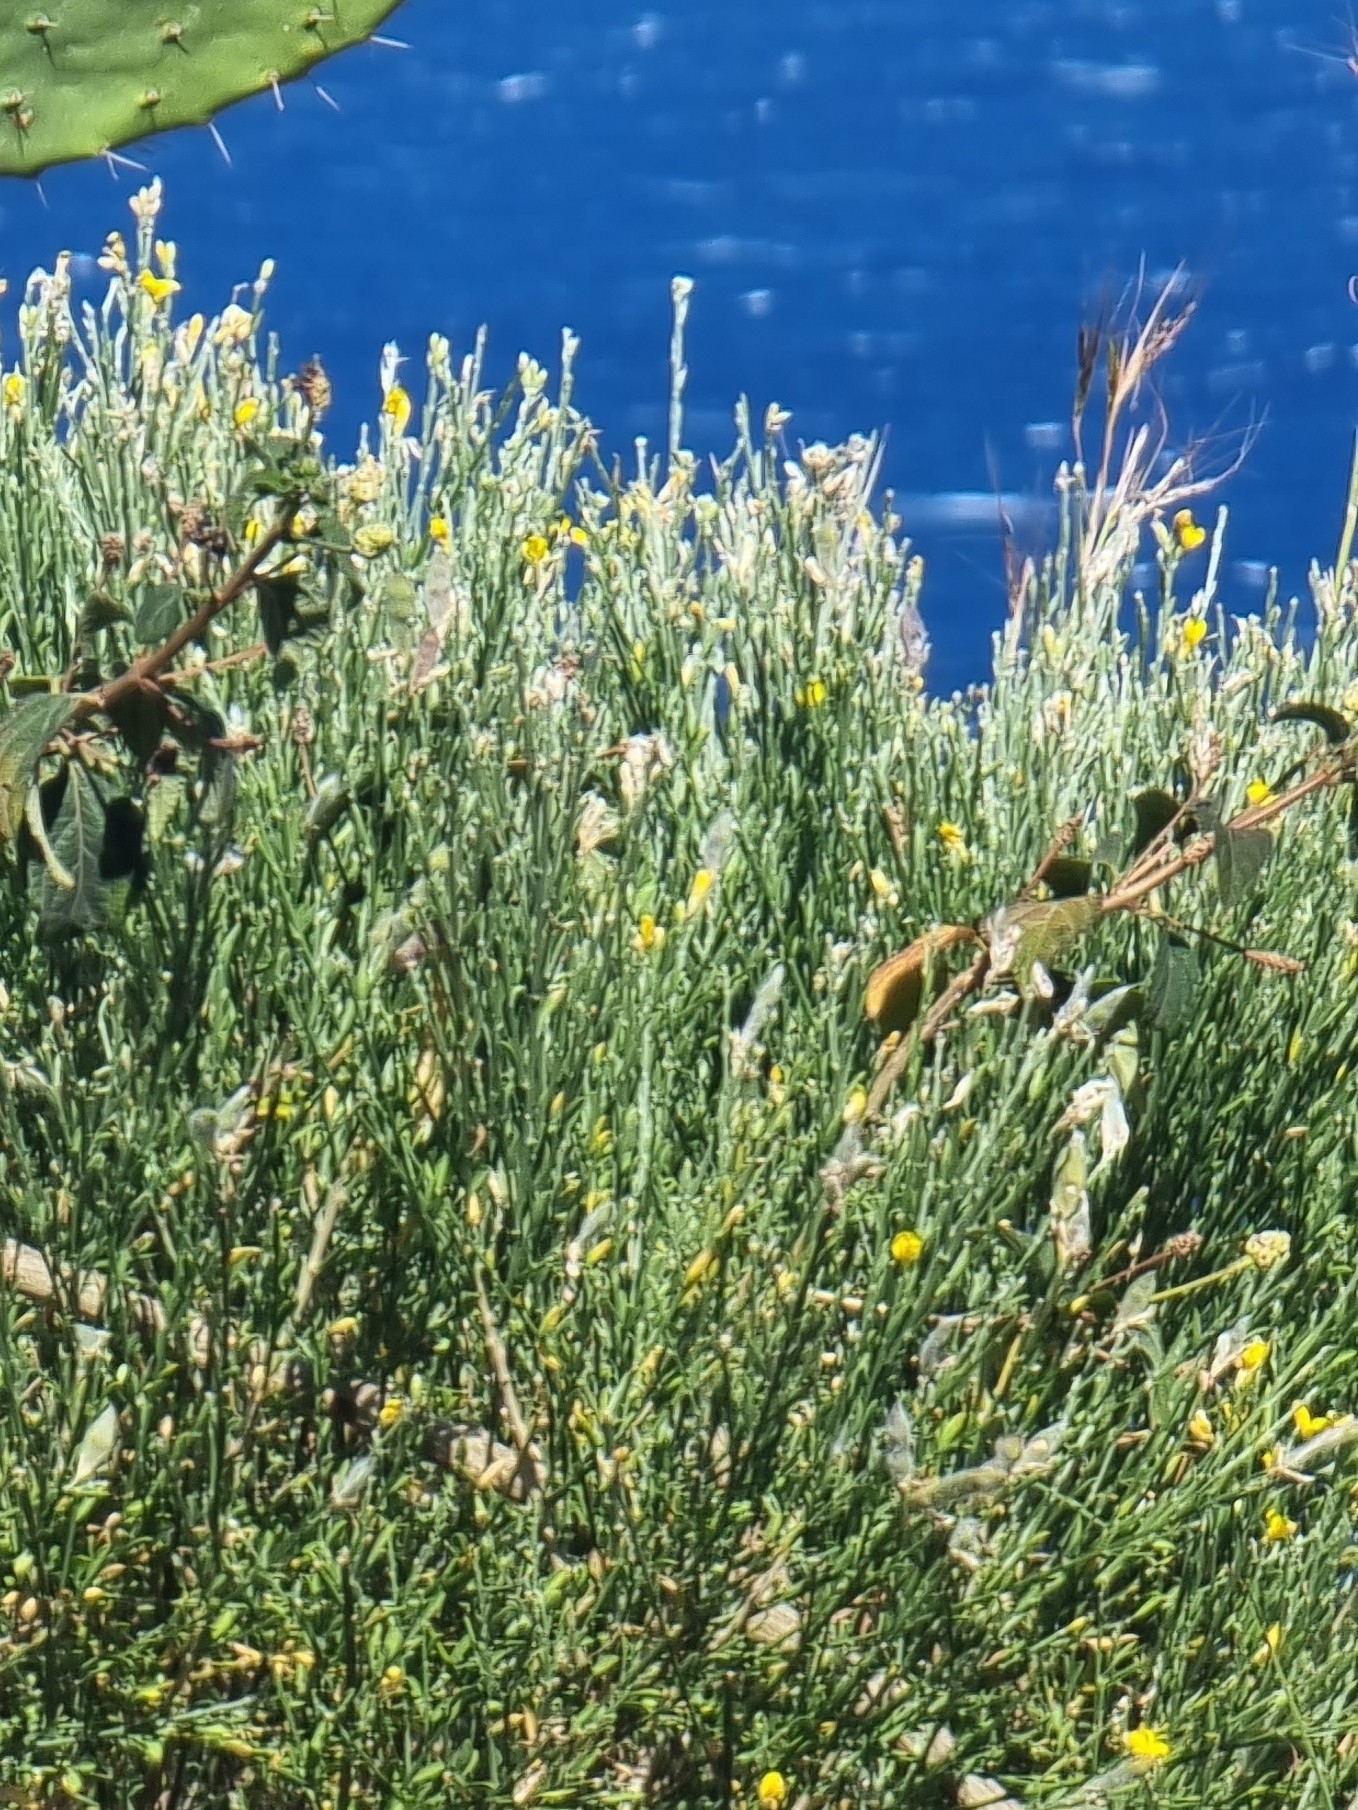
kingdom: Plantae
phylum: Tracheophyta
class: Magnoliopsida
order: Fabales
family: Fabaceae
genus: Genista
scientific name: Genista tenera
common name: Madeira broom
